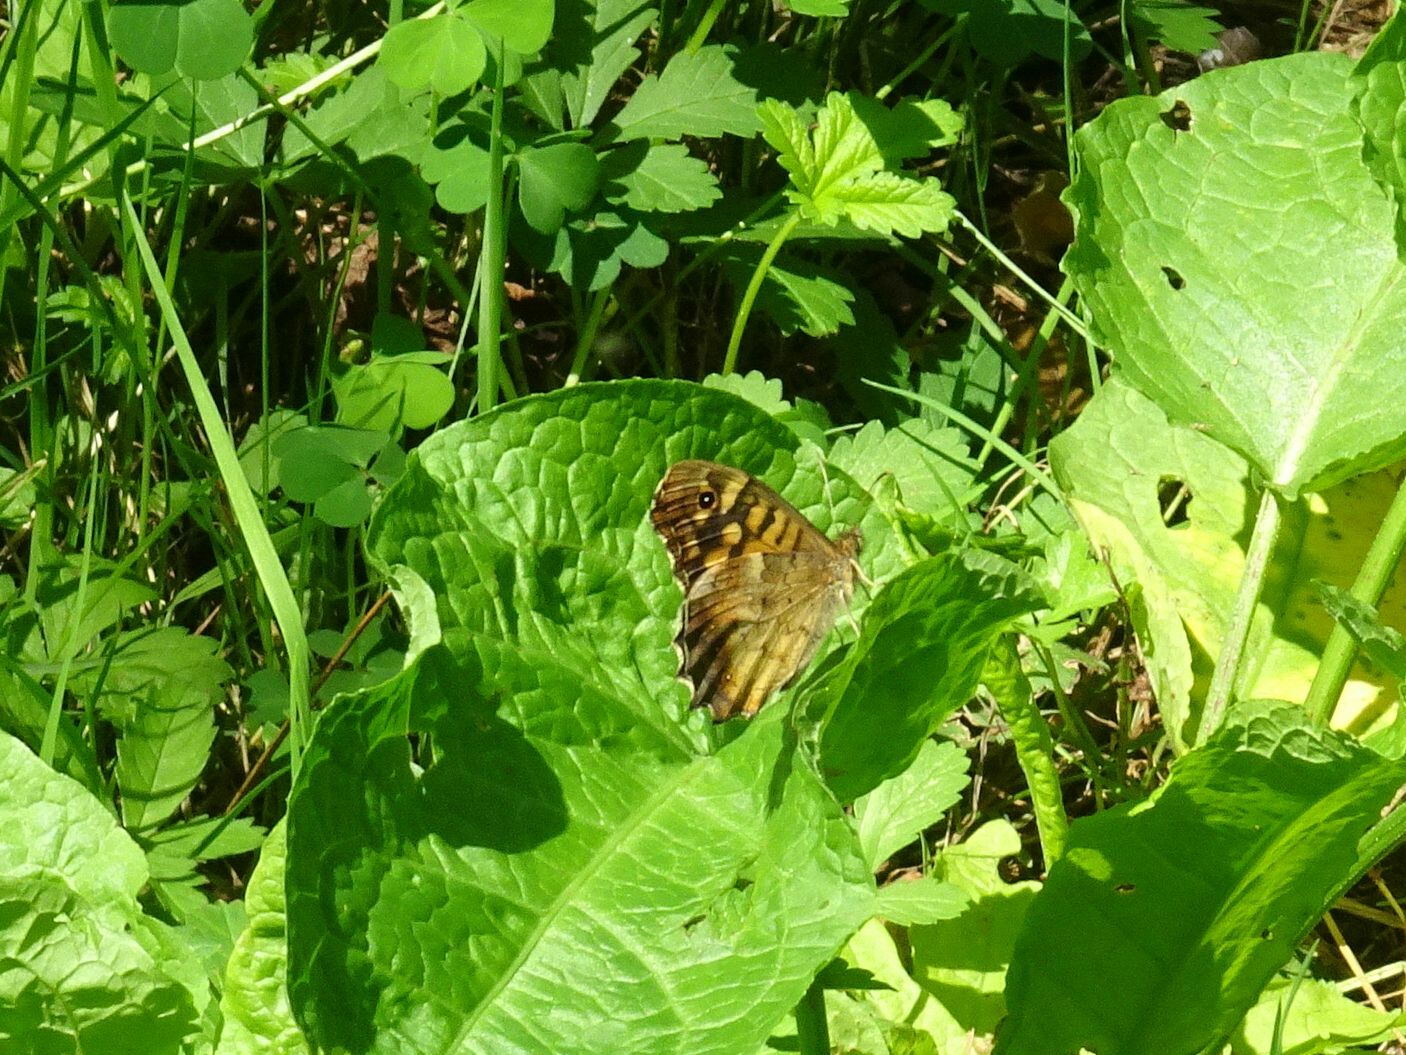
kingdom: Animalia
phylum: Arthropoda
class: Insecta
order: Lepidoptera
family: Nymphalidae
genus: Pararge
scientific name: Pararge aegeria
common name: Speckled wood
